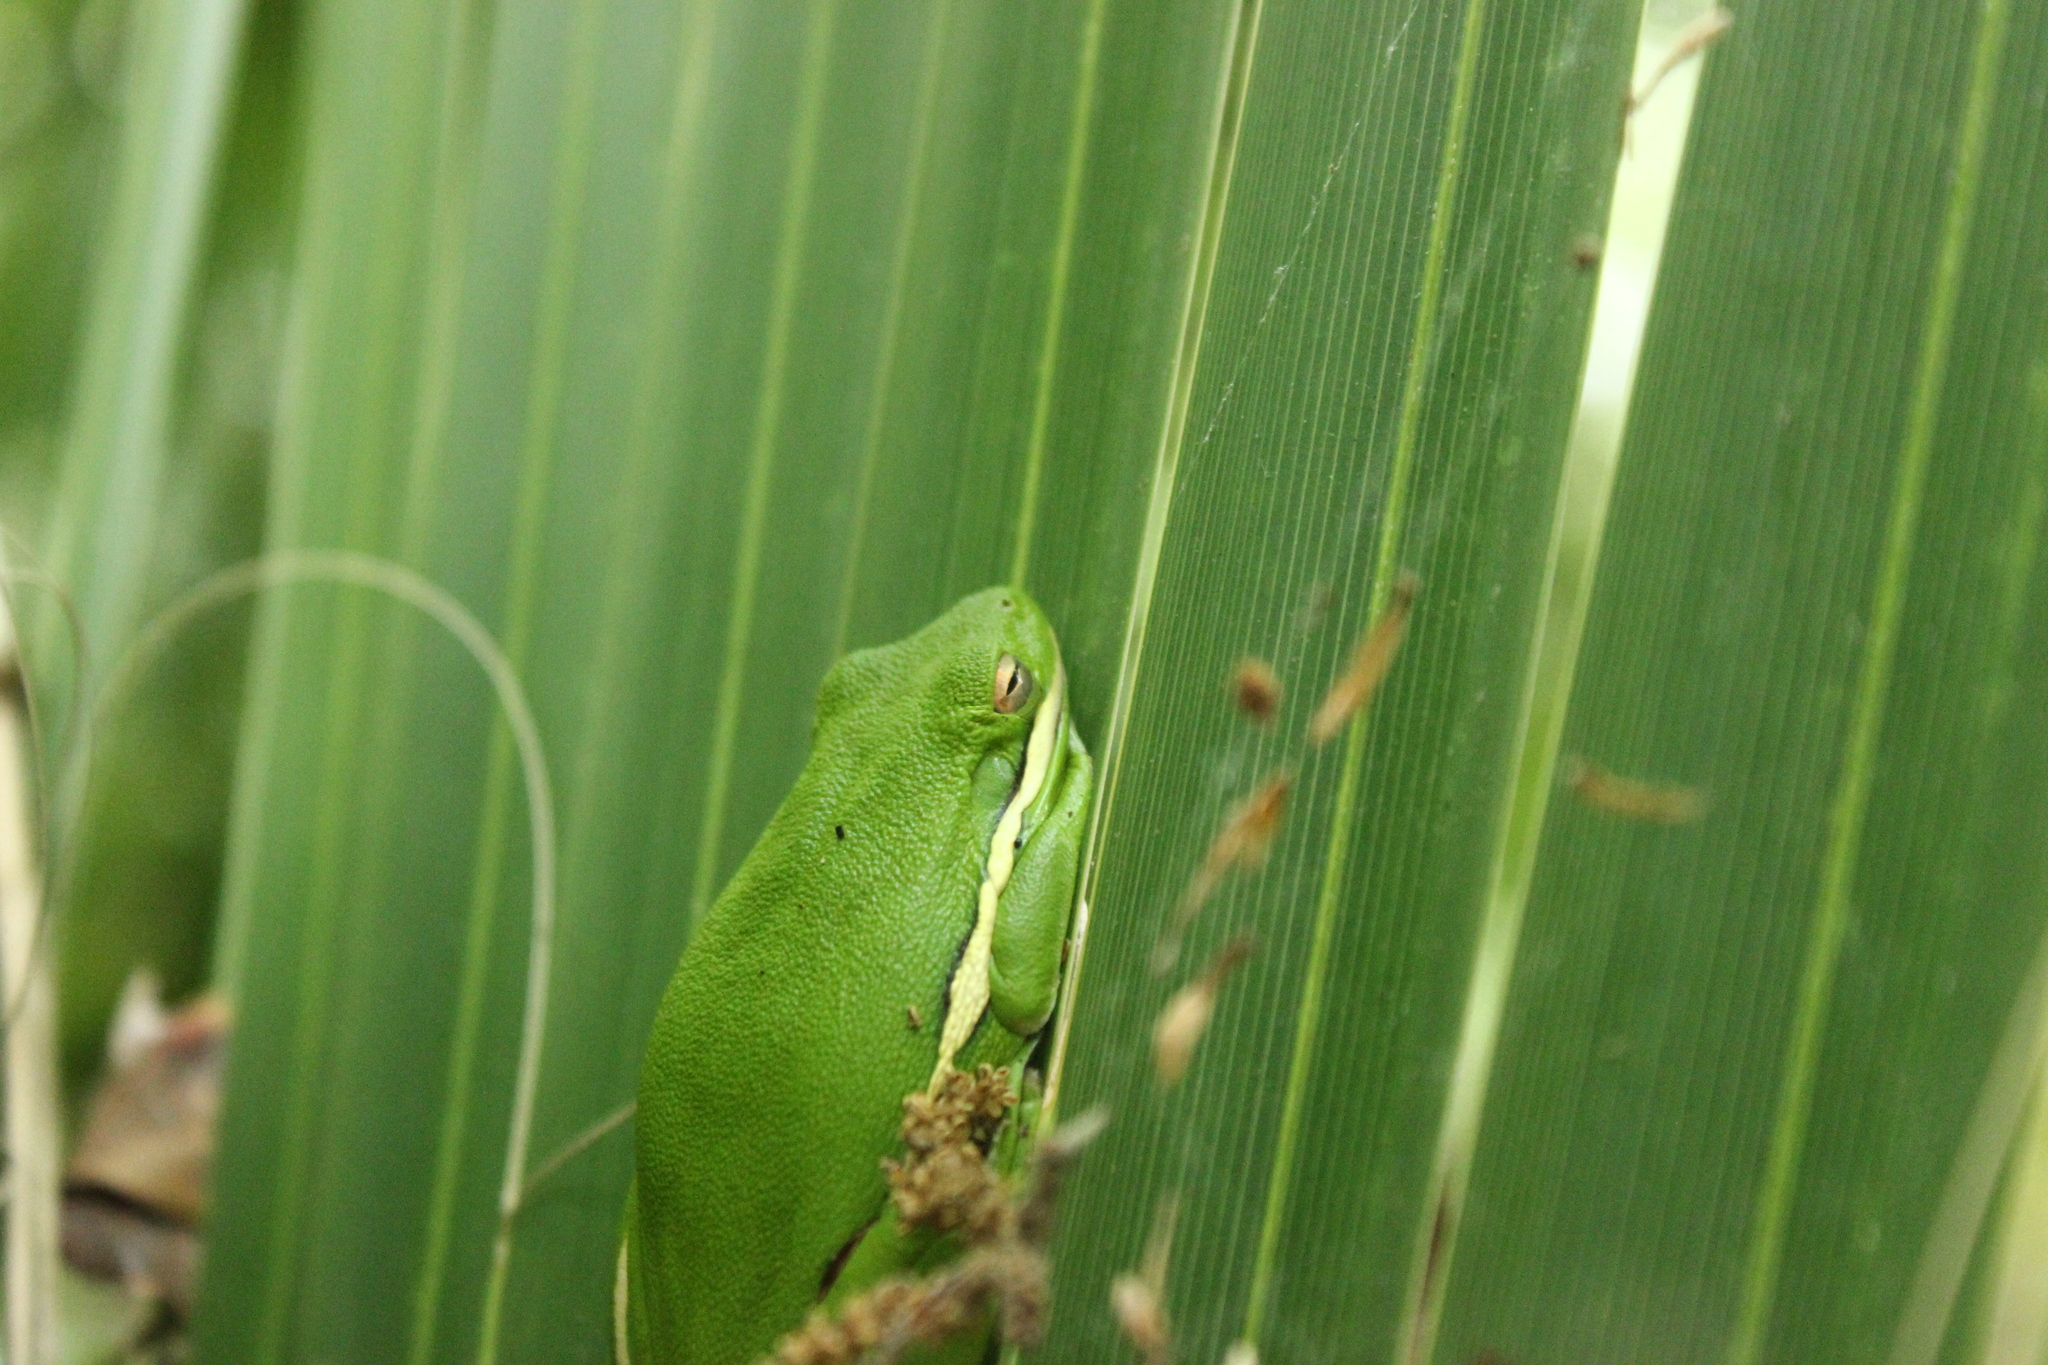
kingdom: Animalia
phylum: Chordata
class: Amphibia
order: Anura
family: Hylidae
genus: Dryophytes
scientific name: Dryophytes cinereus
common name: Green treefrog
